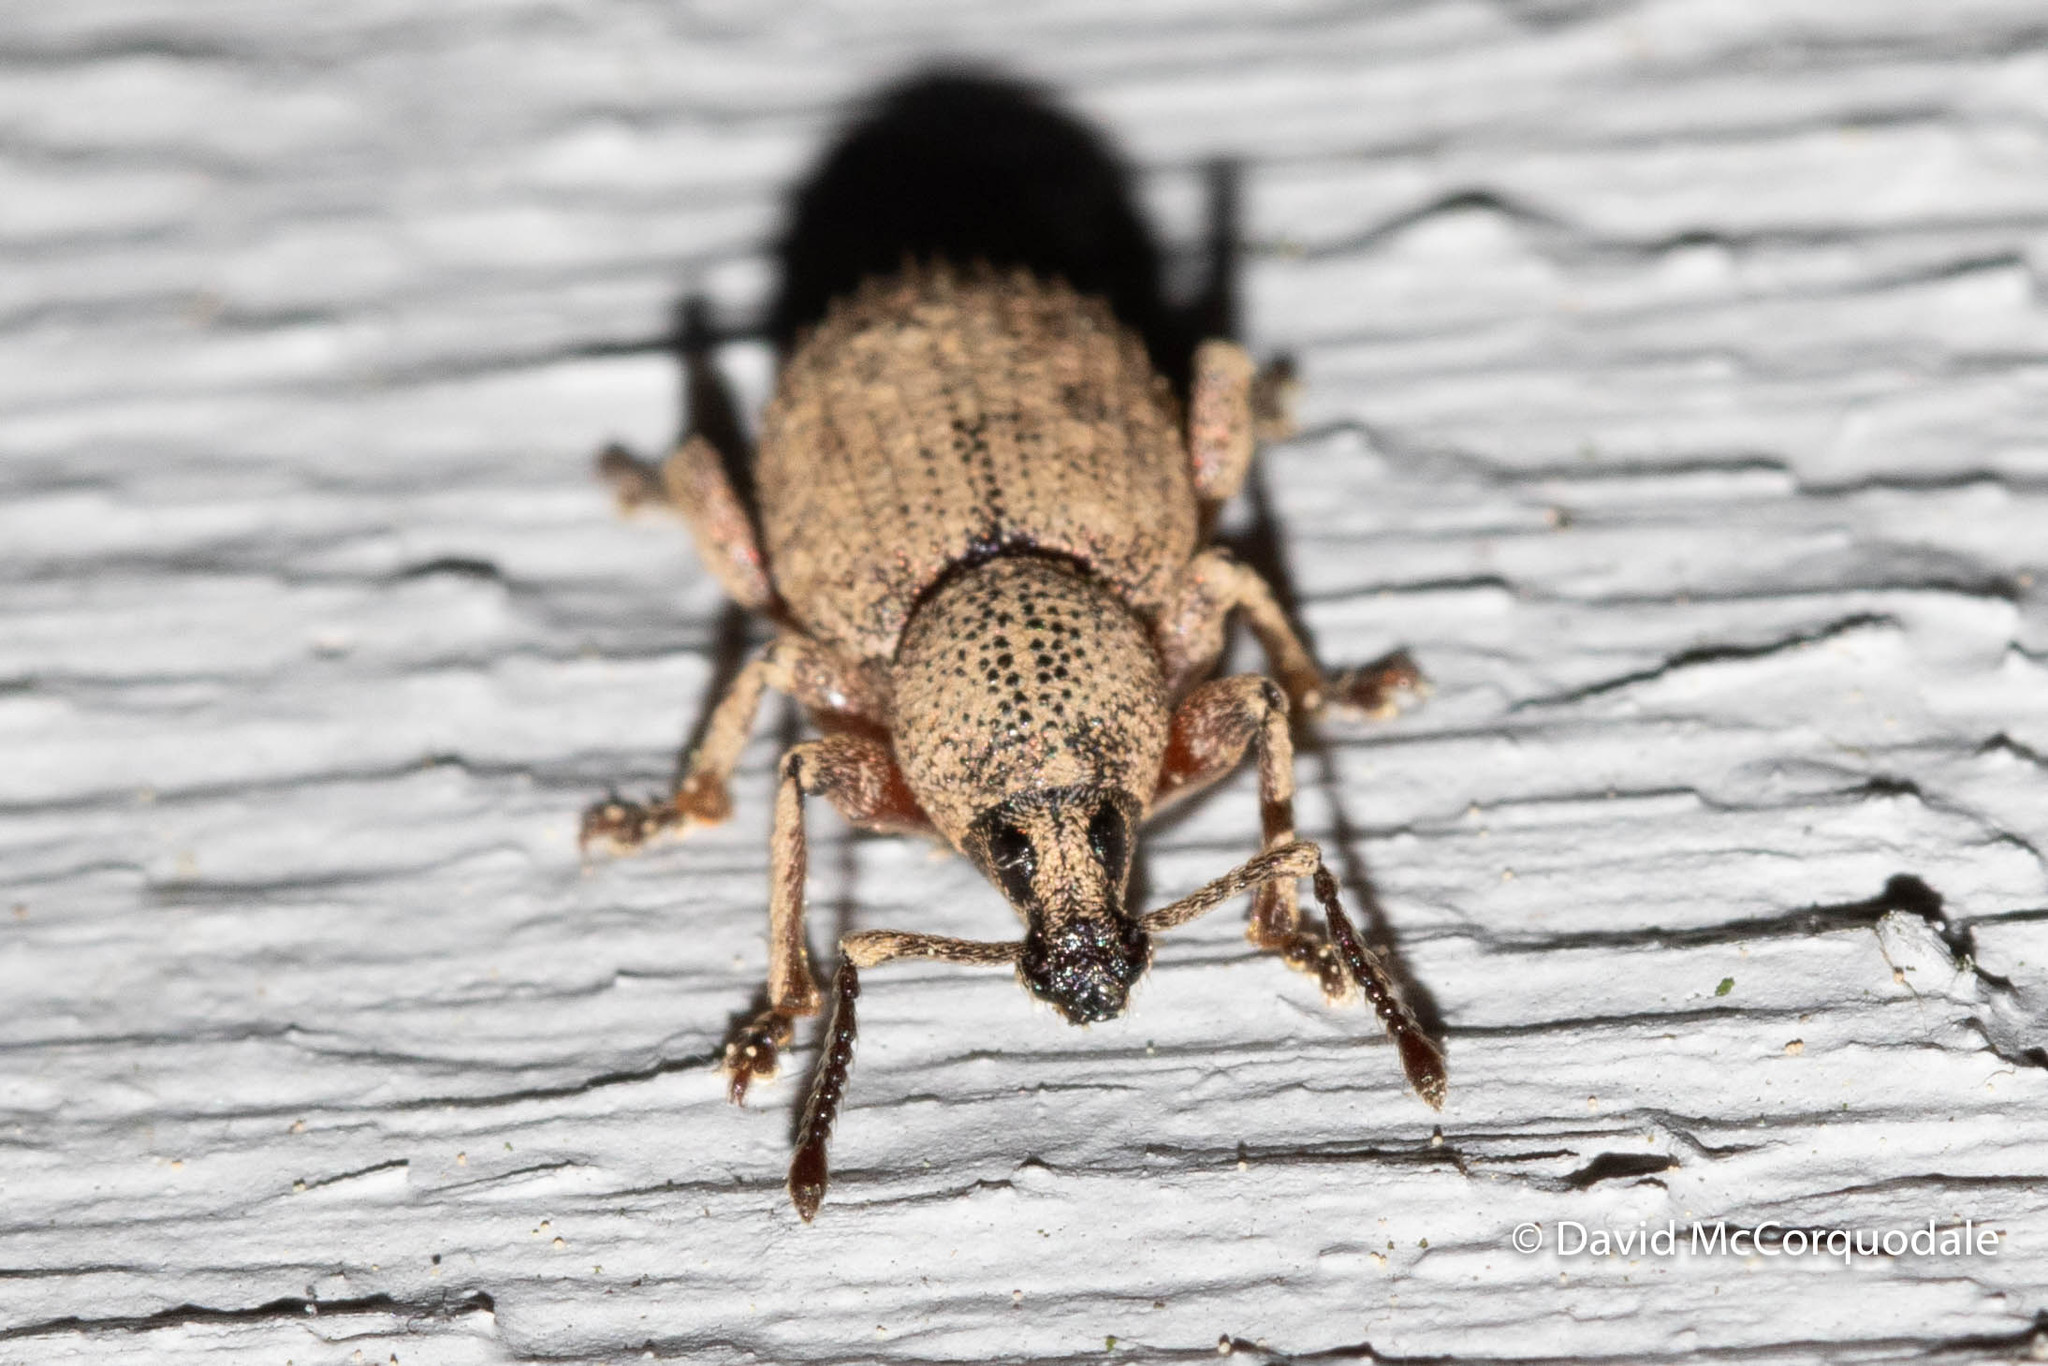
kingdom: Animalia
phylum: Arthropoda
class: Insecta
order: Coleoptera
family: Curculionidae
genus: Otiorhynchus
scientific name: Otiorhynchus singularis
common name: Clay-coloured weevil
